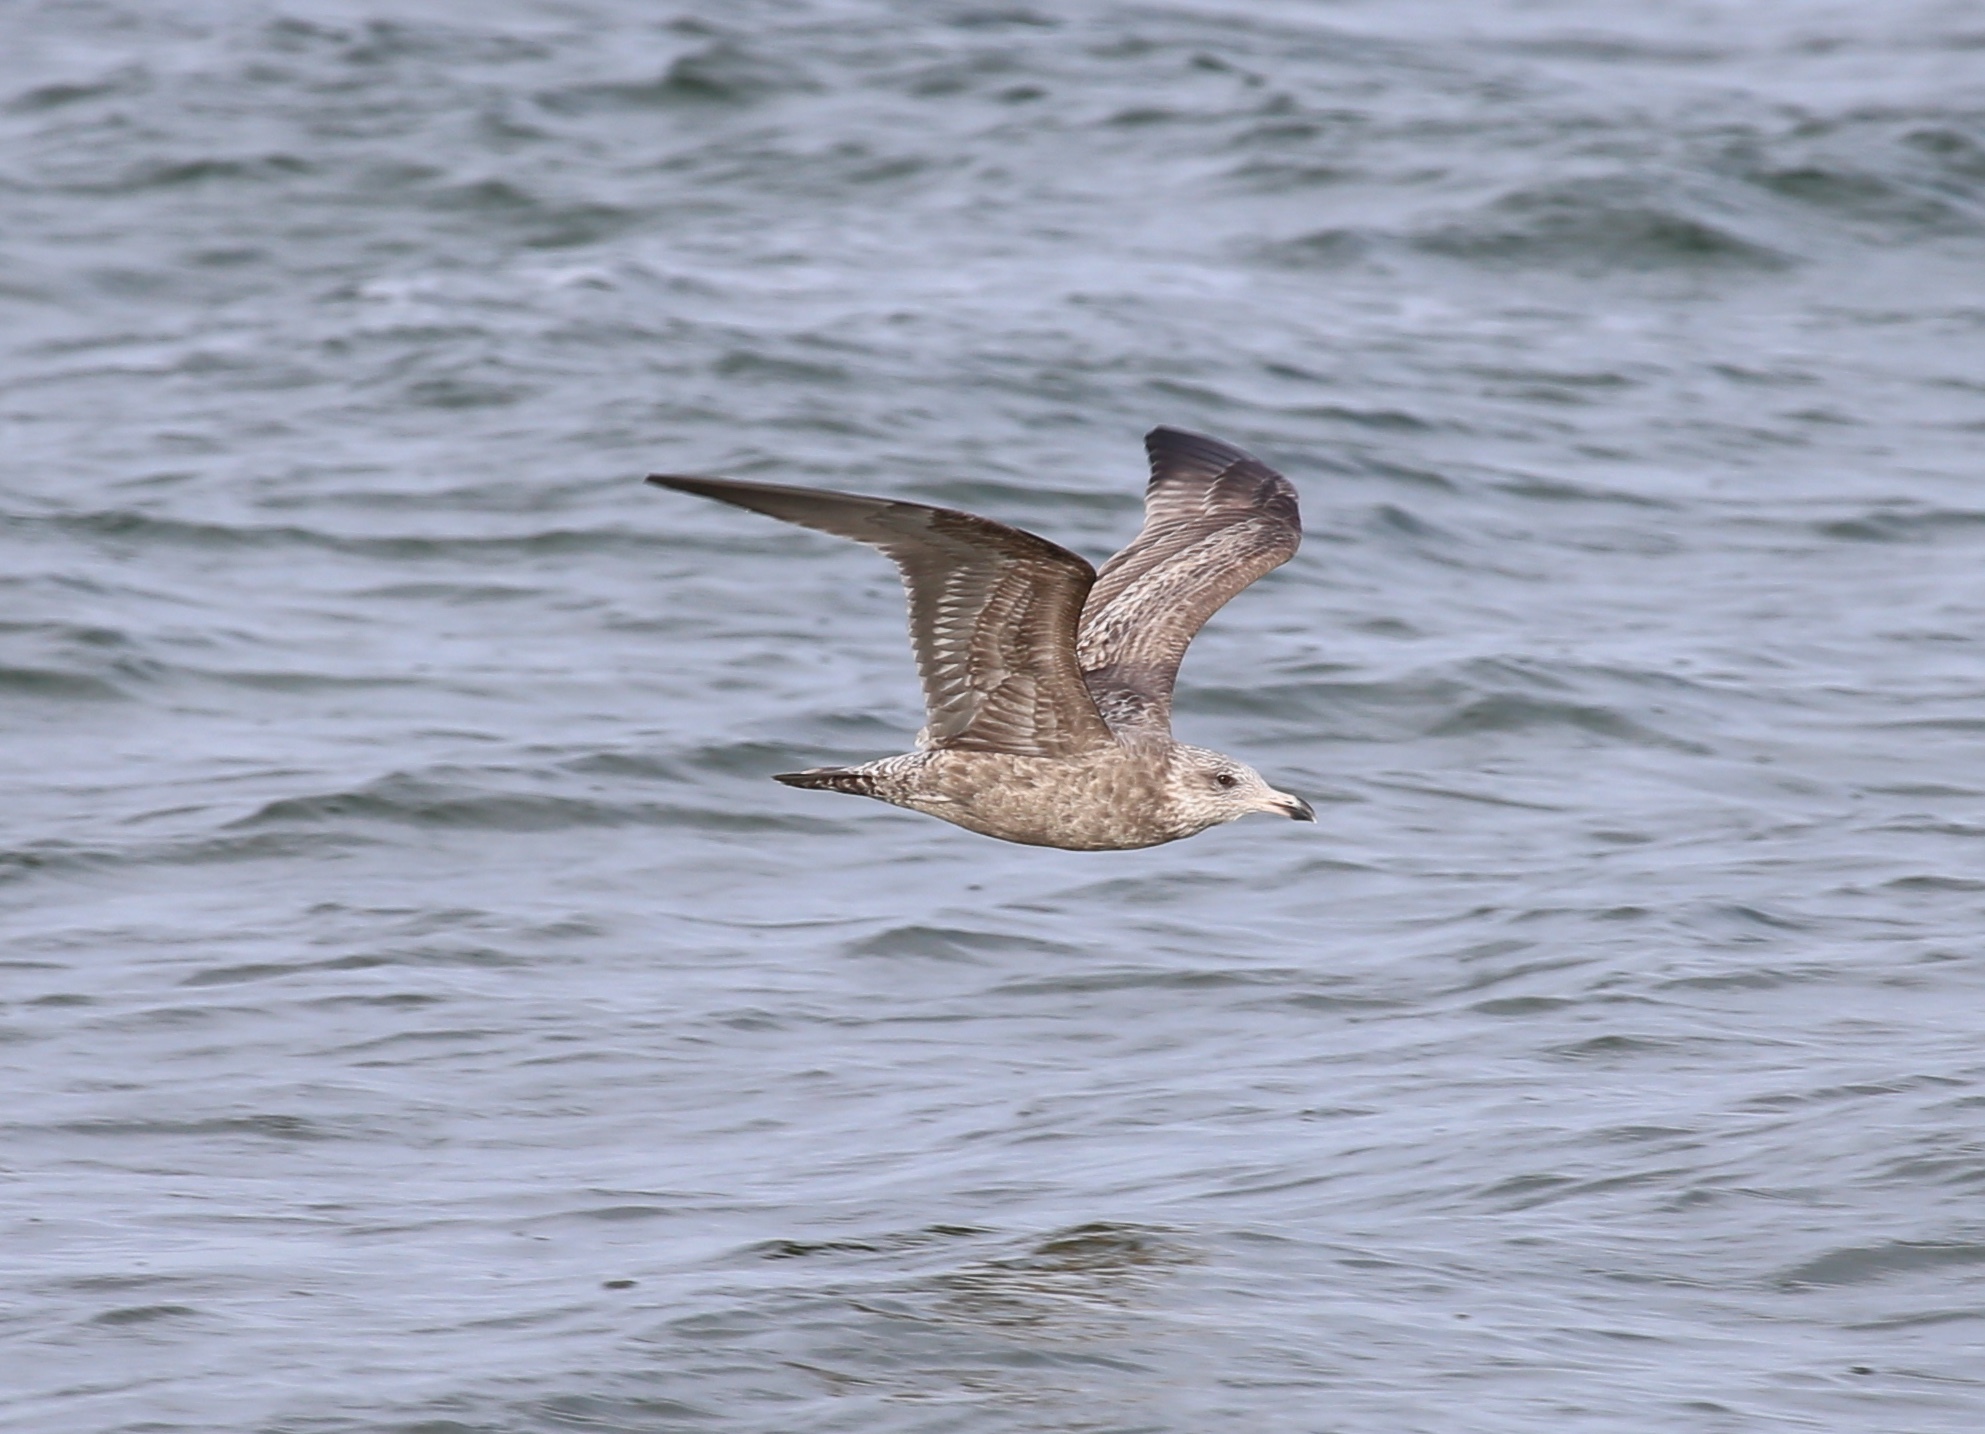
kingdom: Animalia
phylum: Chordata
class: Aves
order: Charadriiformes
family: Laridae
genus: Larus
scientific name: Larus argentatus
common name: Herring gull
